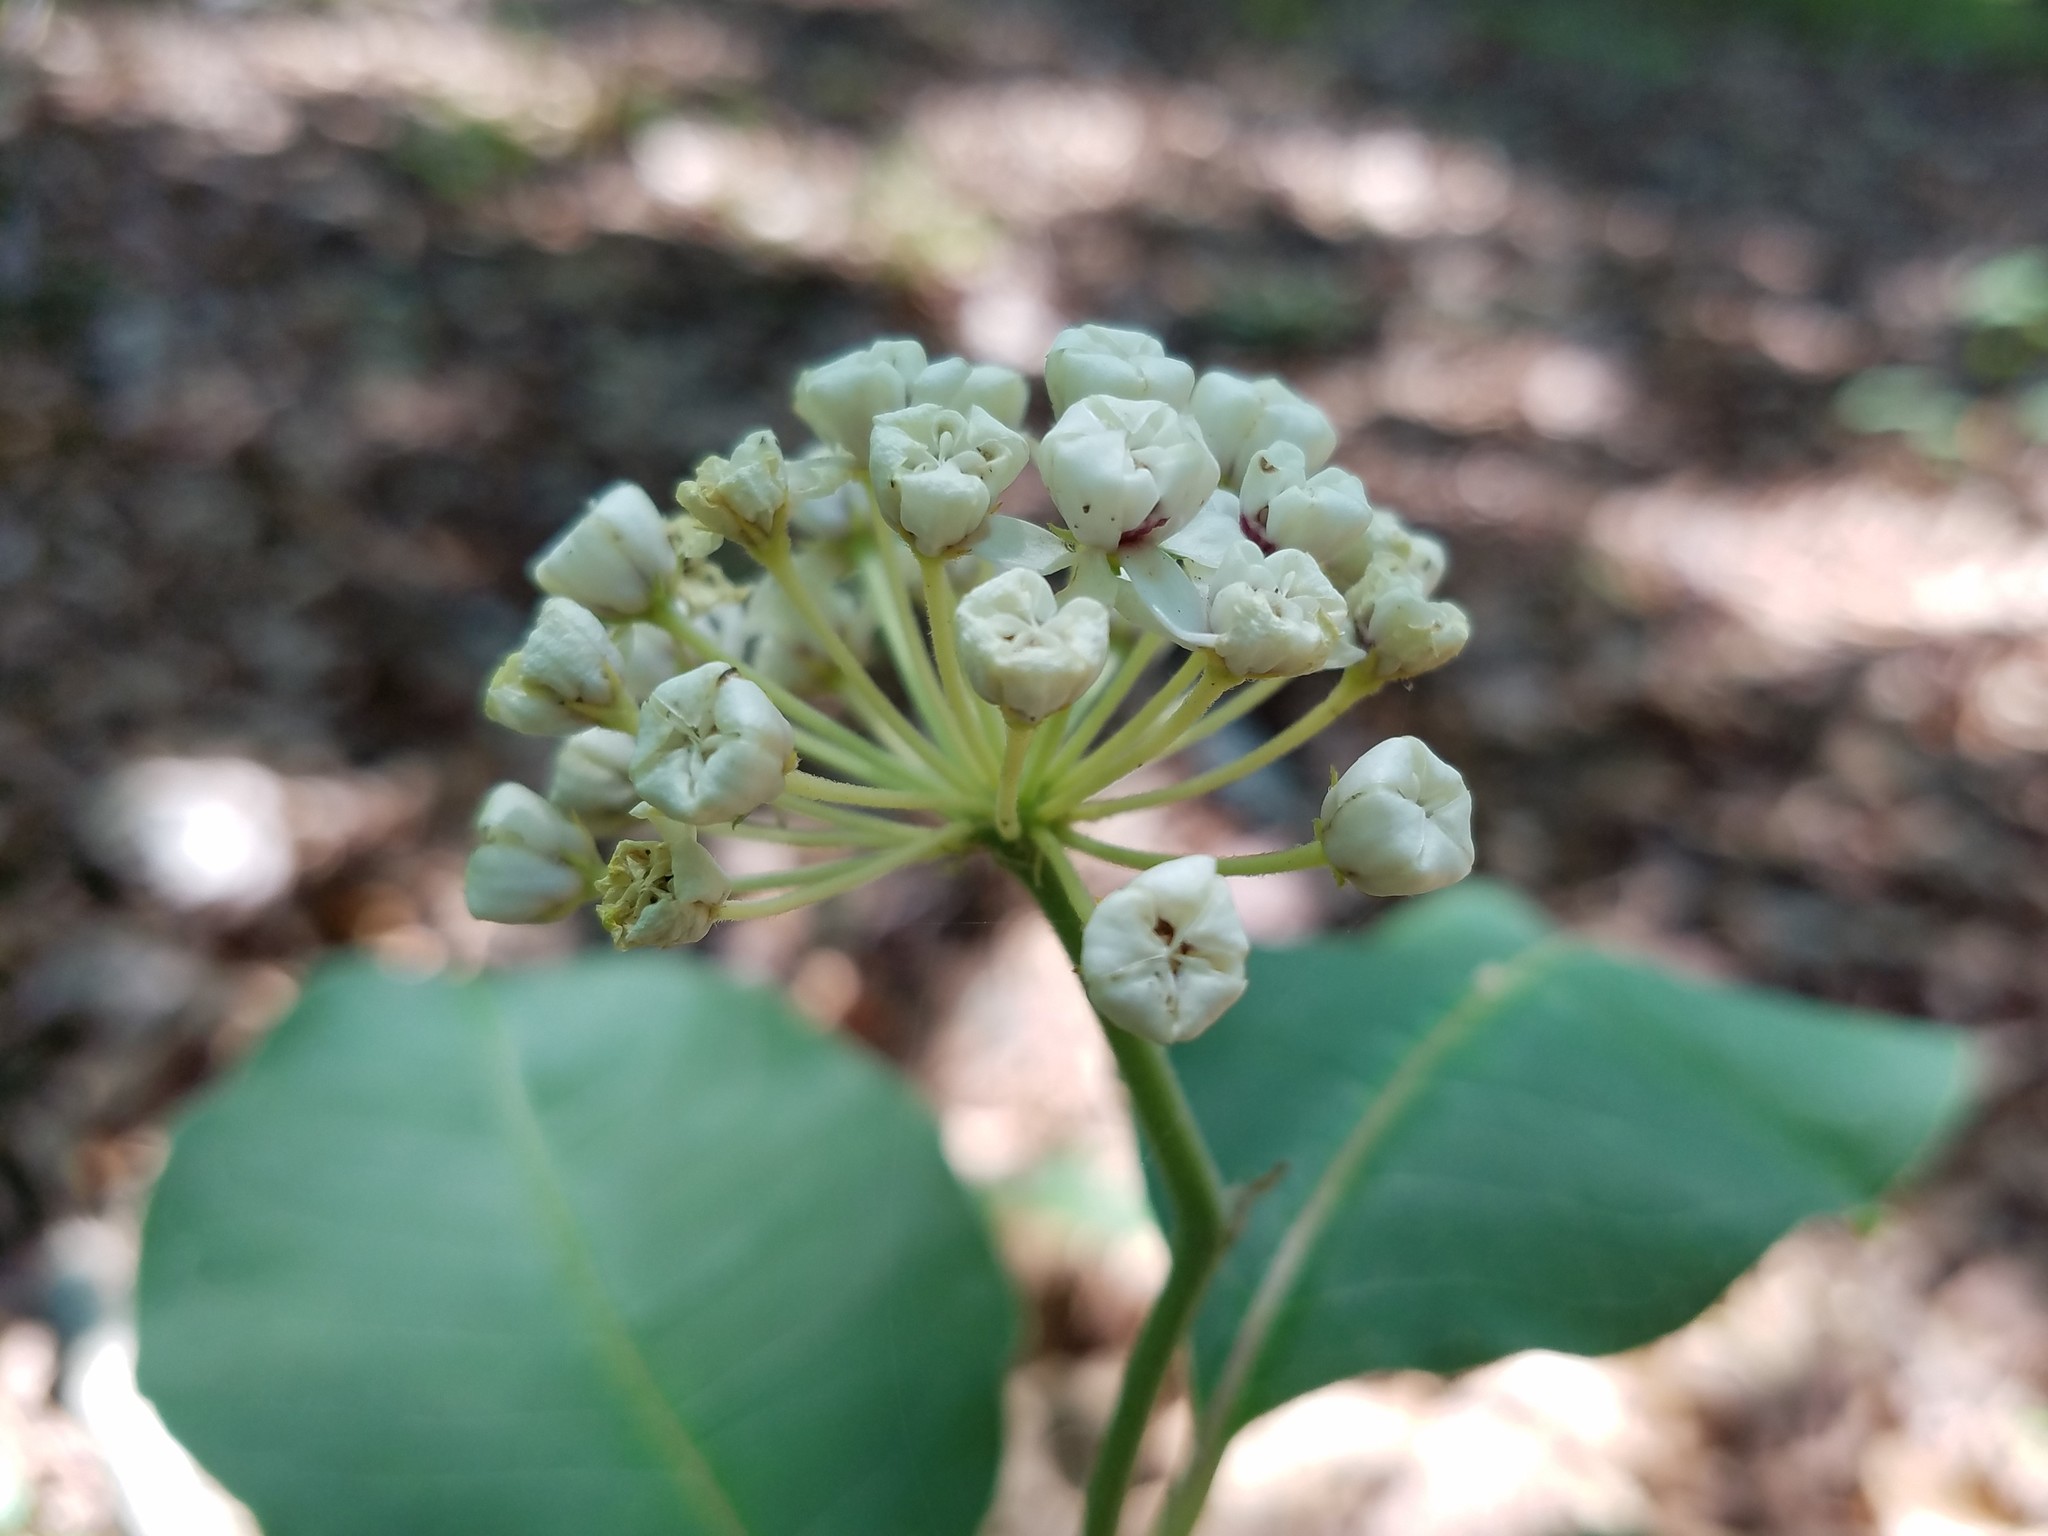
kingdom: Plantae
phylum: Tracheophyta
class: Magnoliopsida
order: Gentianales
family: Apocynaceae
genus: Asclepias
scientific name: Asclepias variegata
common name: Variegated milkweed
